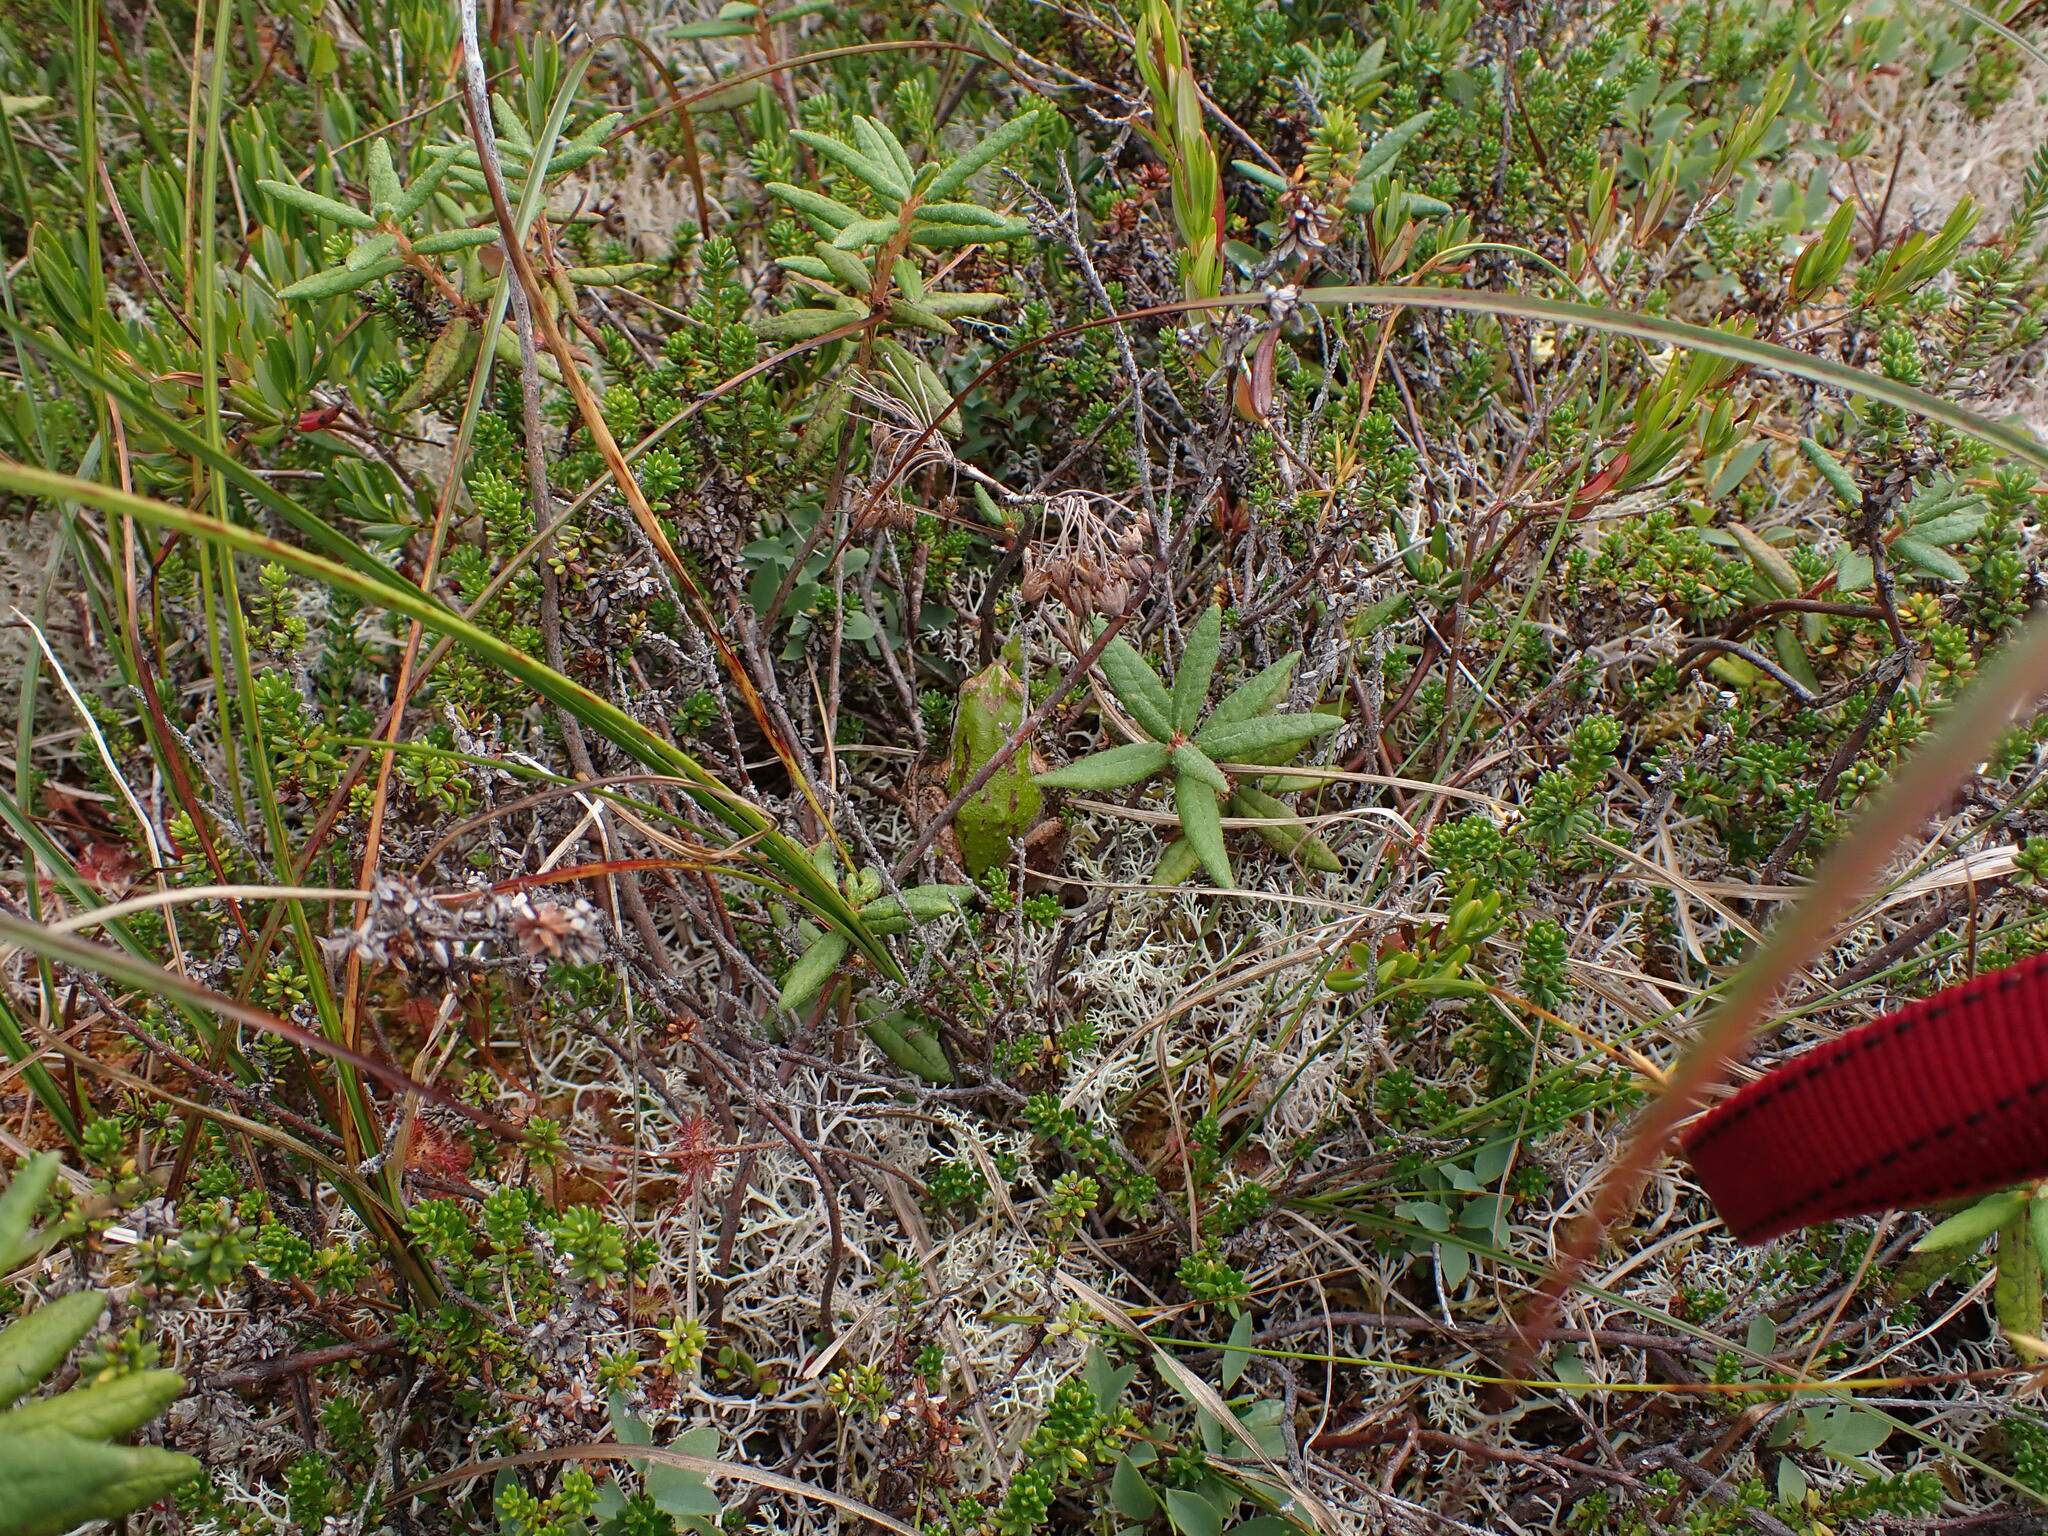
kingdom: Plantae
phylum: Tracheophyta
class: Magnoliopsida
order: Ericales
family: Ericaceae
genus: Rhododendron
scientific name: Rhododendron groenlandicum
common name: Bog labrador tea
